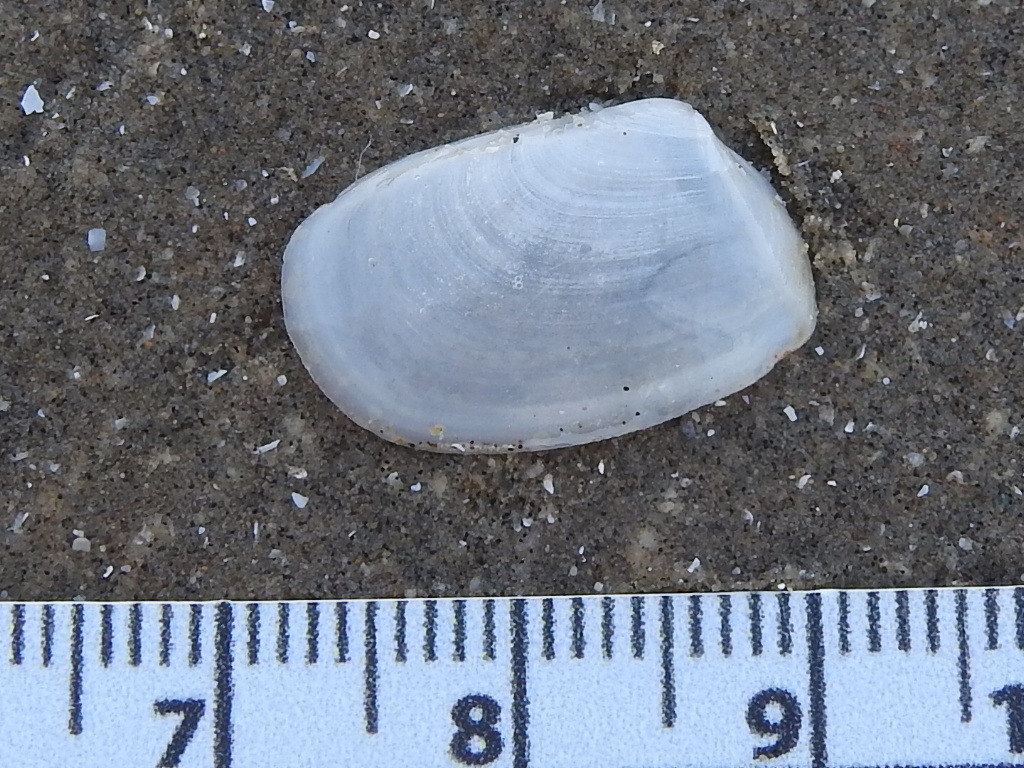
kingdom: Animalia
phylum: Mollusca
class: Bivalvia
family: Periplomatidae
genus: Periploma
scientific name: Periploma inequale
